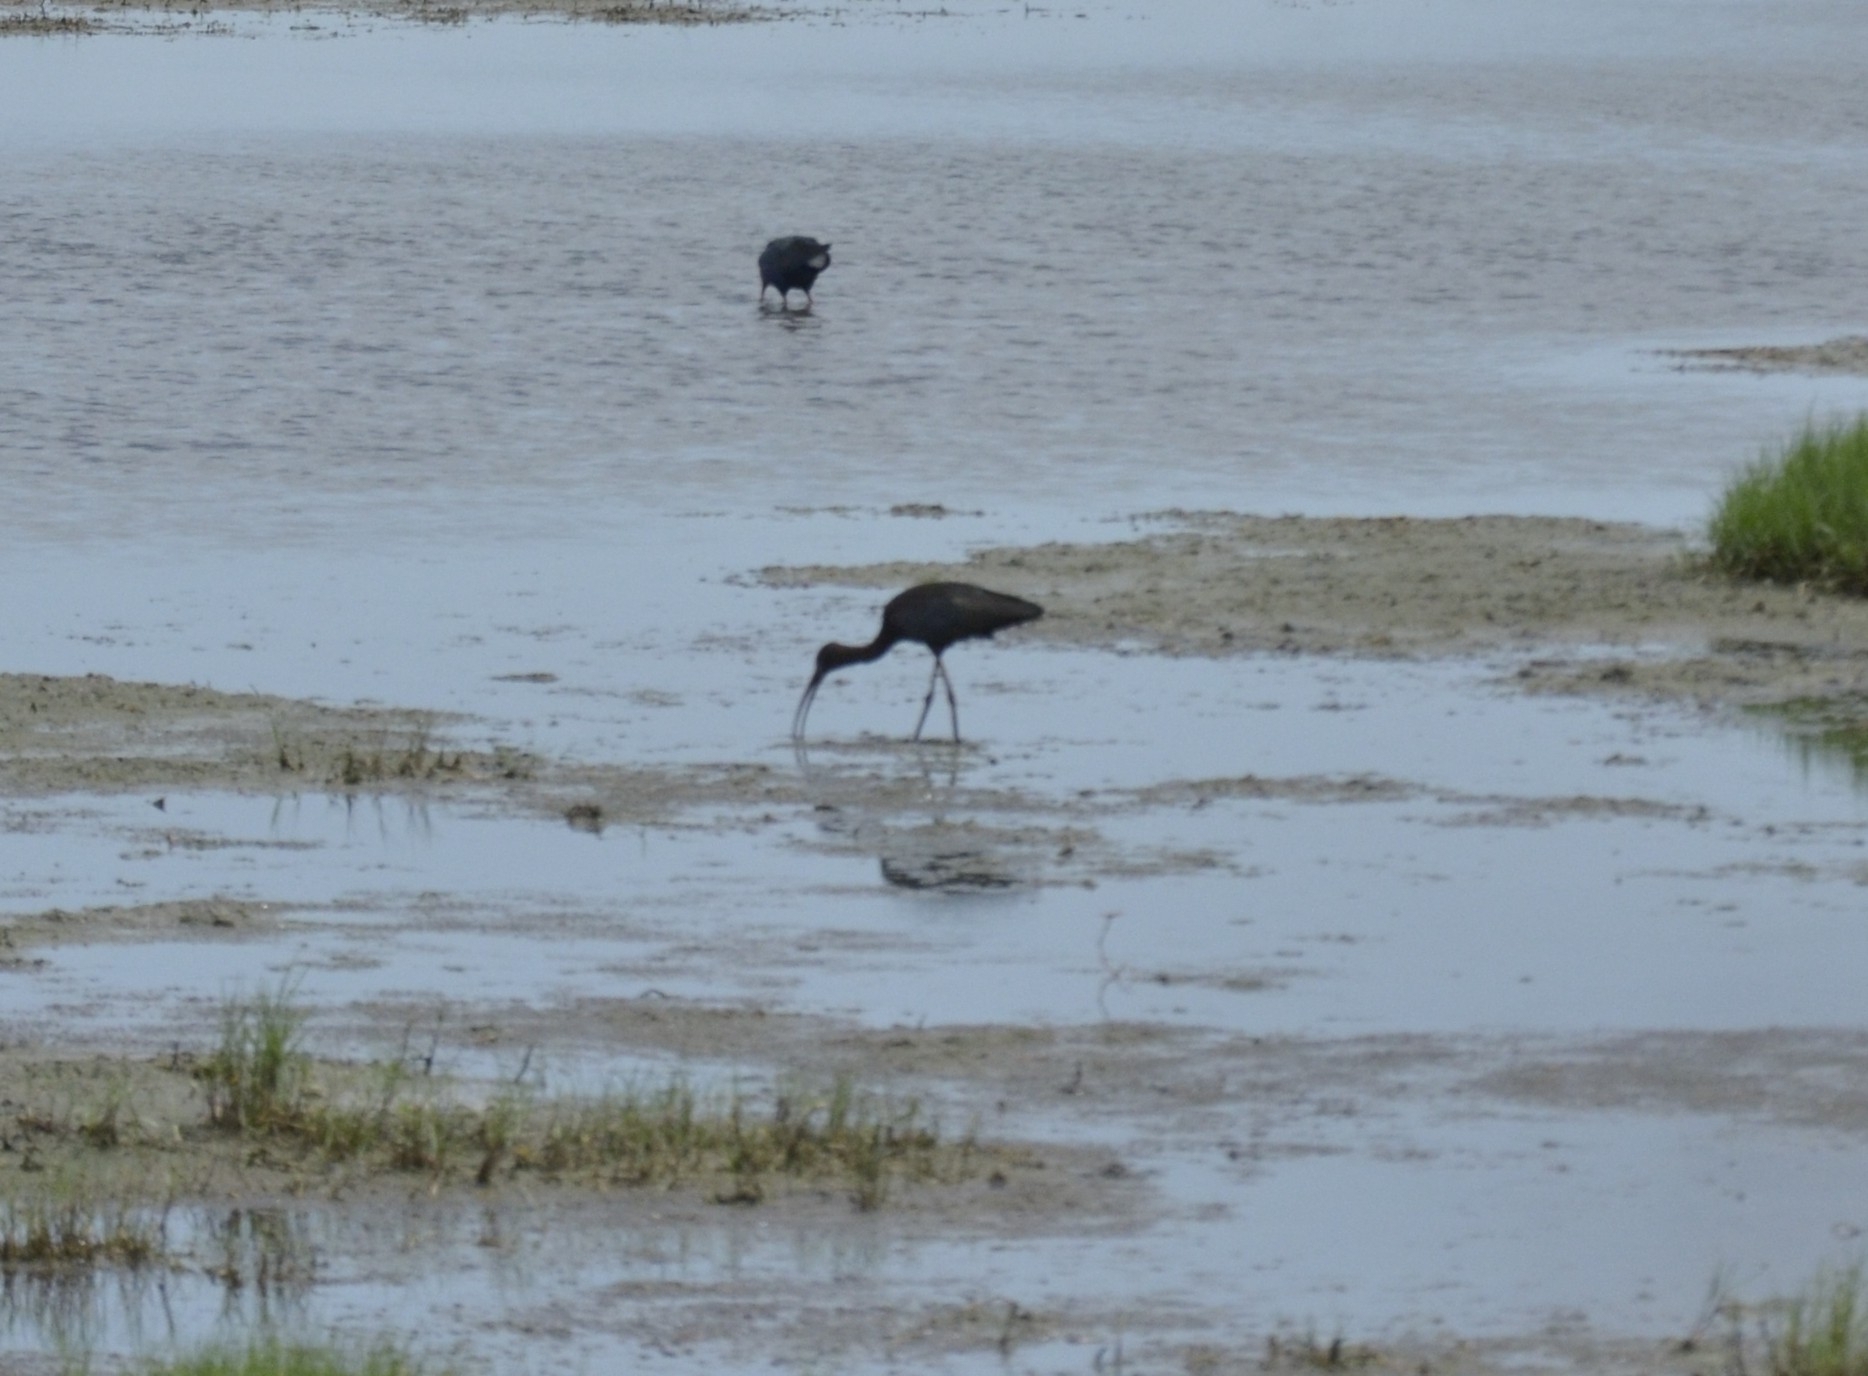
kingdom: Animalia
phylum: Chordata
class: Aves
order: Pelecaniformes
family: Threskiornithidae
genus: Plegadis
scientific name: Plegadis falcinellus
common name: Glossy ibis
